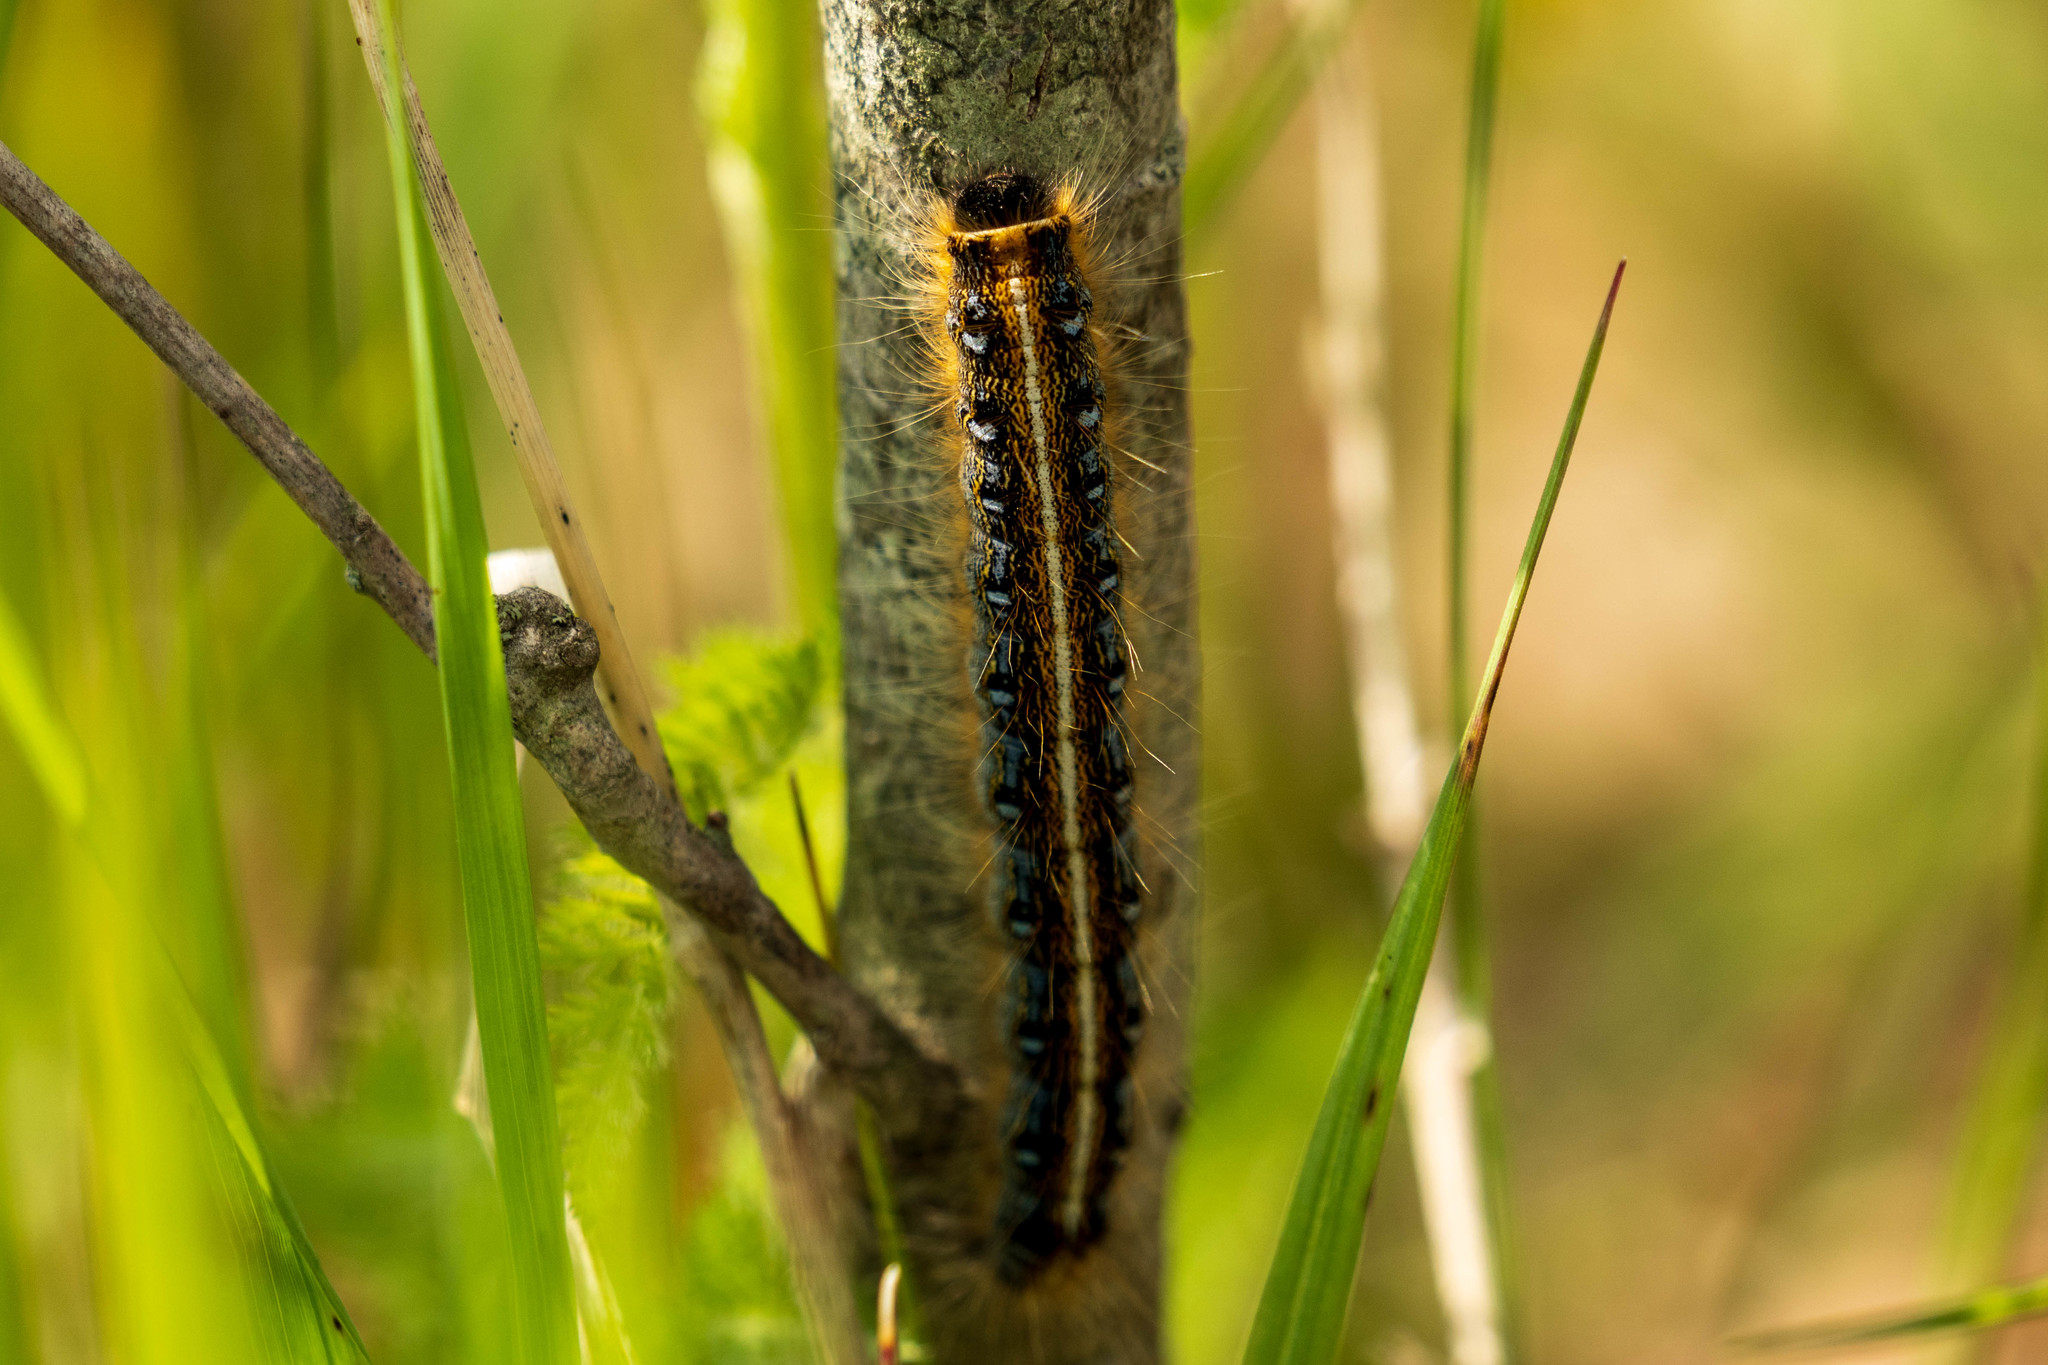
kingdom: Animalia
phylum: Arthropoda
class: Insecta
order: Lepidoptera
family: Lasiocampidae
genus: Malacosoma
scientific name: Malacosoma americana
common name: Eastern tent caterpillar moth
